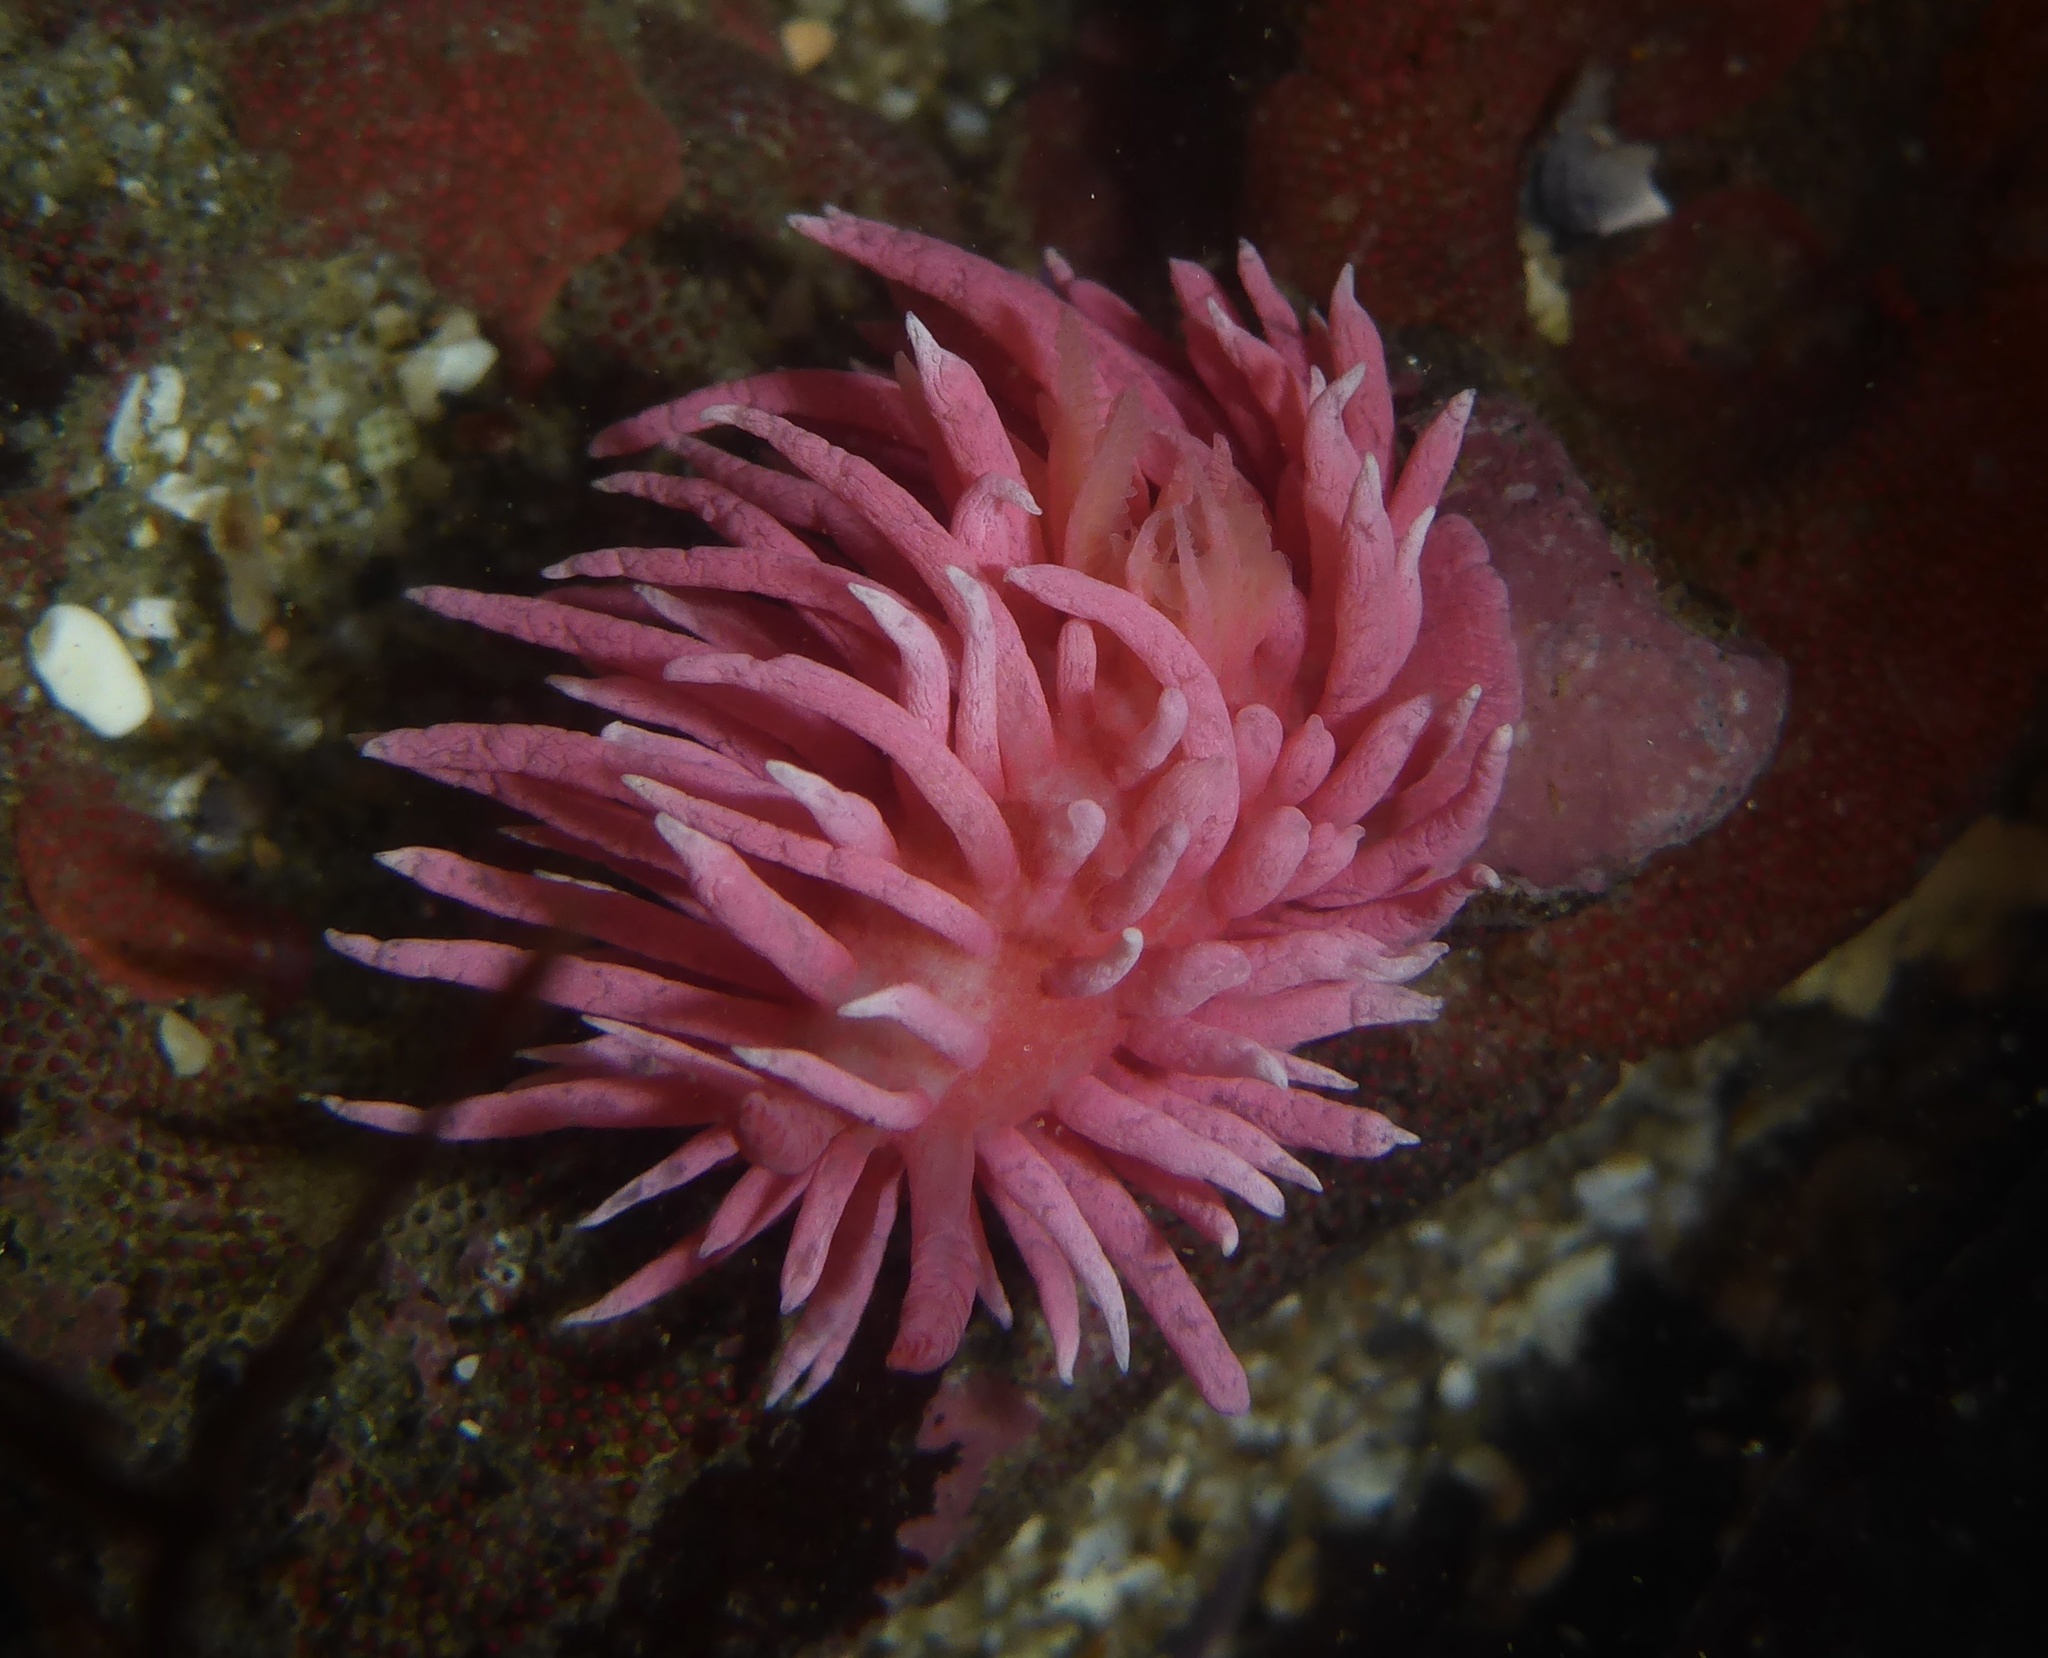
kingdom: Animalia
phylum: Mollusca
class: Gastropoda
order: Nudibranchia
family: Goniodorididae
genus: Okenia
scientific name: Okenia
